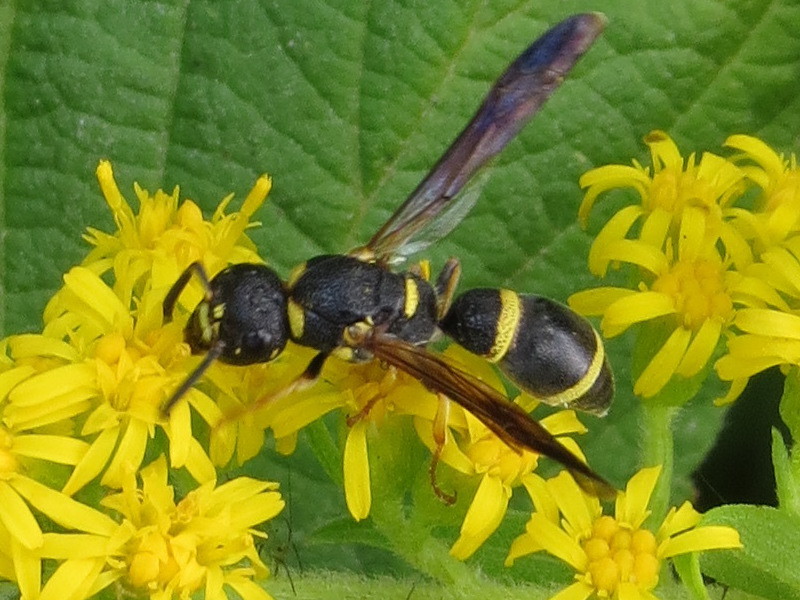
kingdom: Animalia
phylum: Arthropoda
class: Insecta
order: Hymenoptera
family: Eumenidae
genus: Parancistrocerus
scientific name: Parancistrocerus perennis
